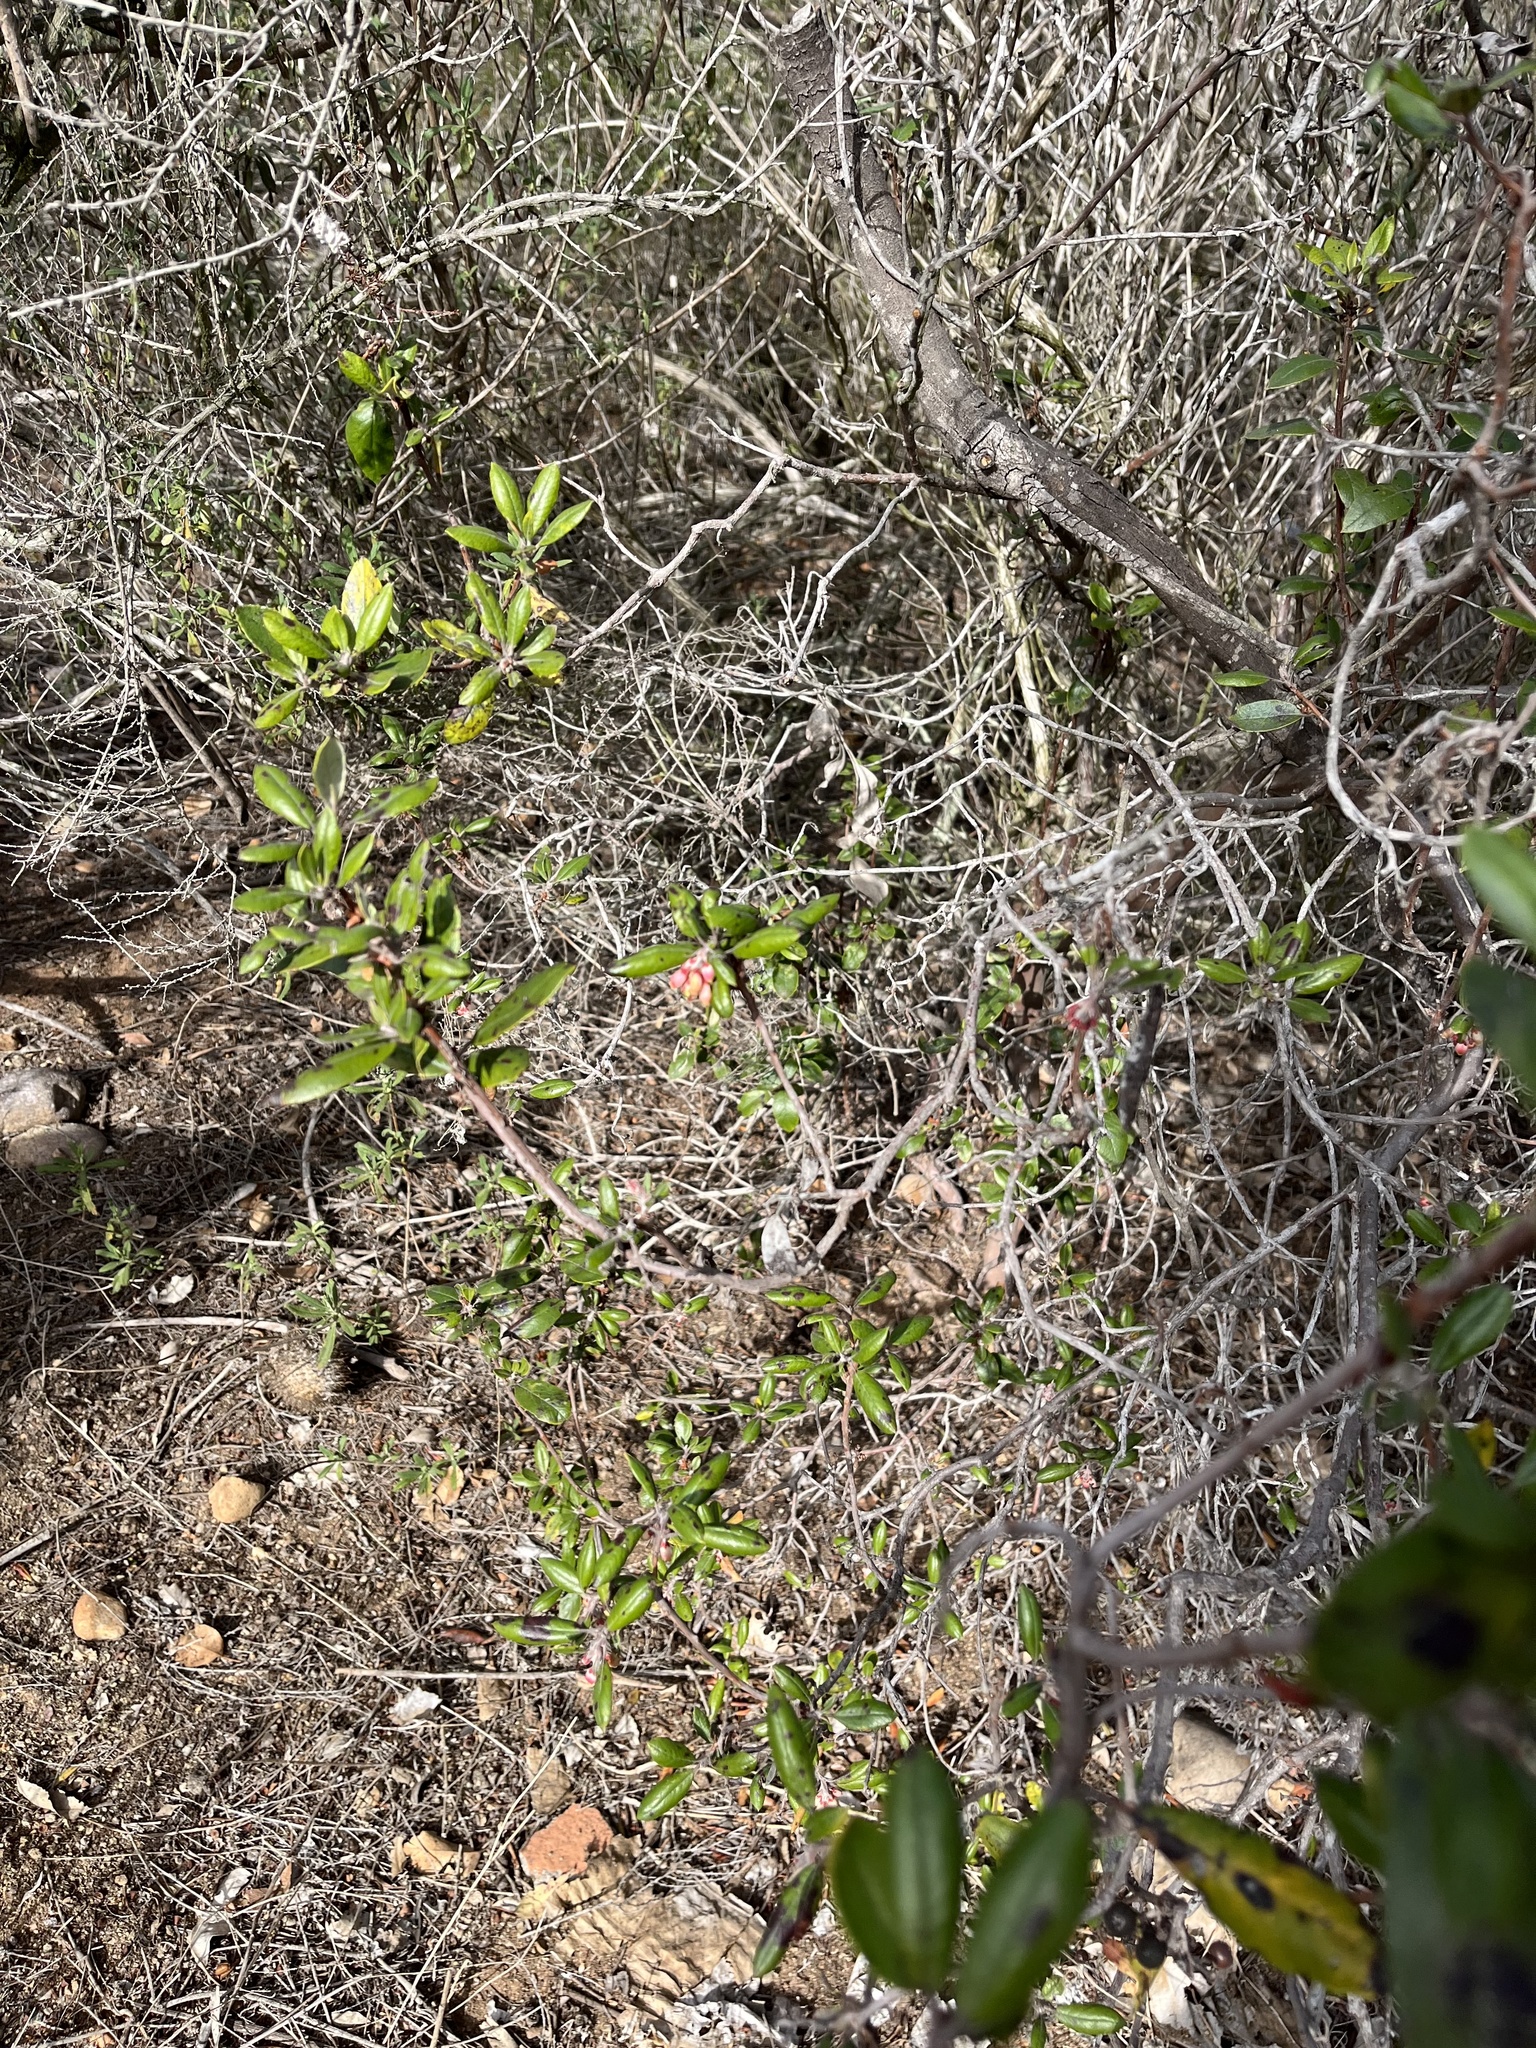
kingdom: Plantae
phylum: Tracheophyta
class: Magnoliopsida
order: Ericales
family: Ericaceae
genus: Arctostaphylos
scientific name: Arctostaphylos bicolor
